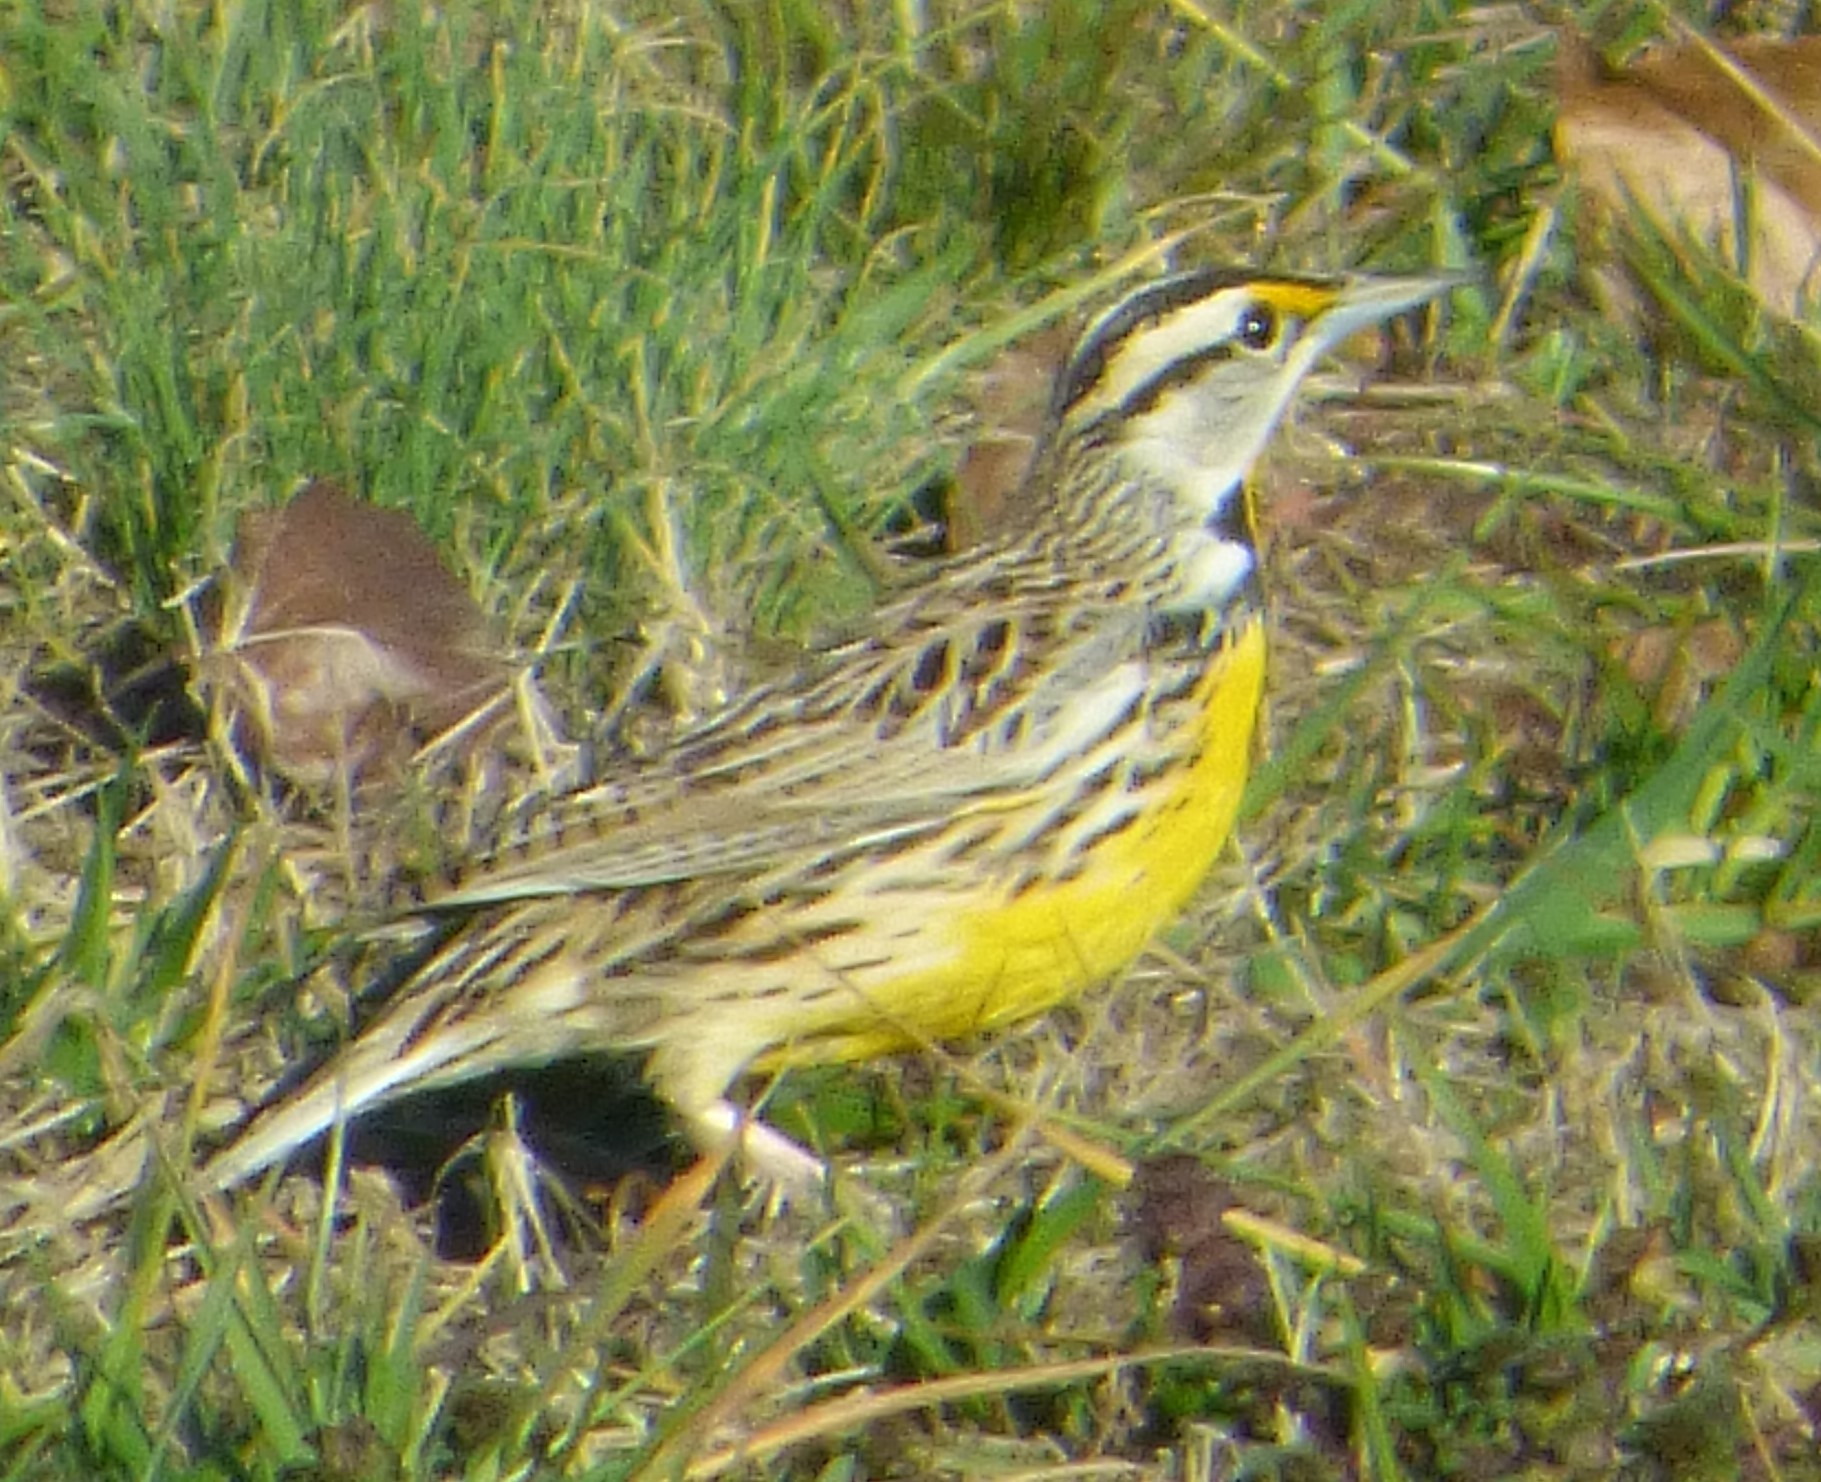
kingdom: Animalia
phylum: Chordata
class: Aves
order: Passeriformes
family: Icteridae
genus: Sturnella
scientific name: Sturnella magna
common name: Eastern meadowlark
